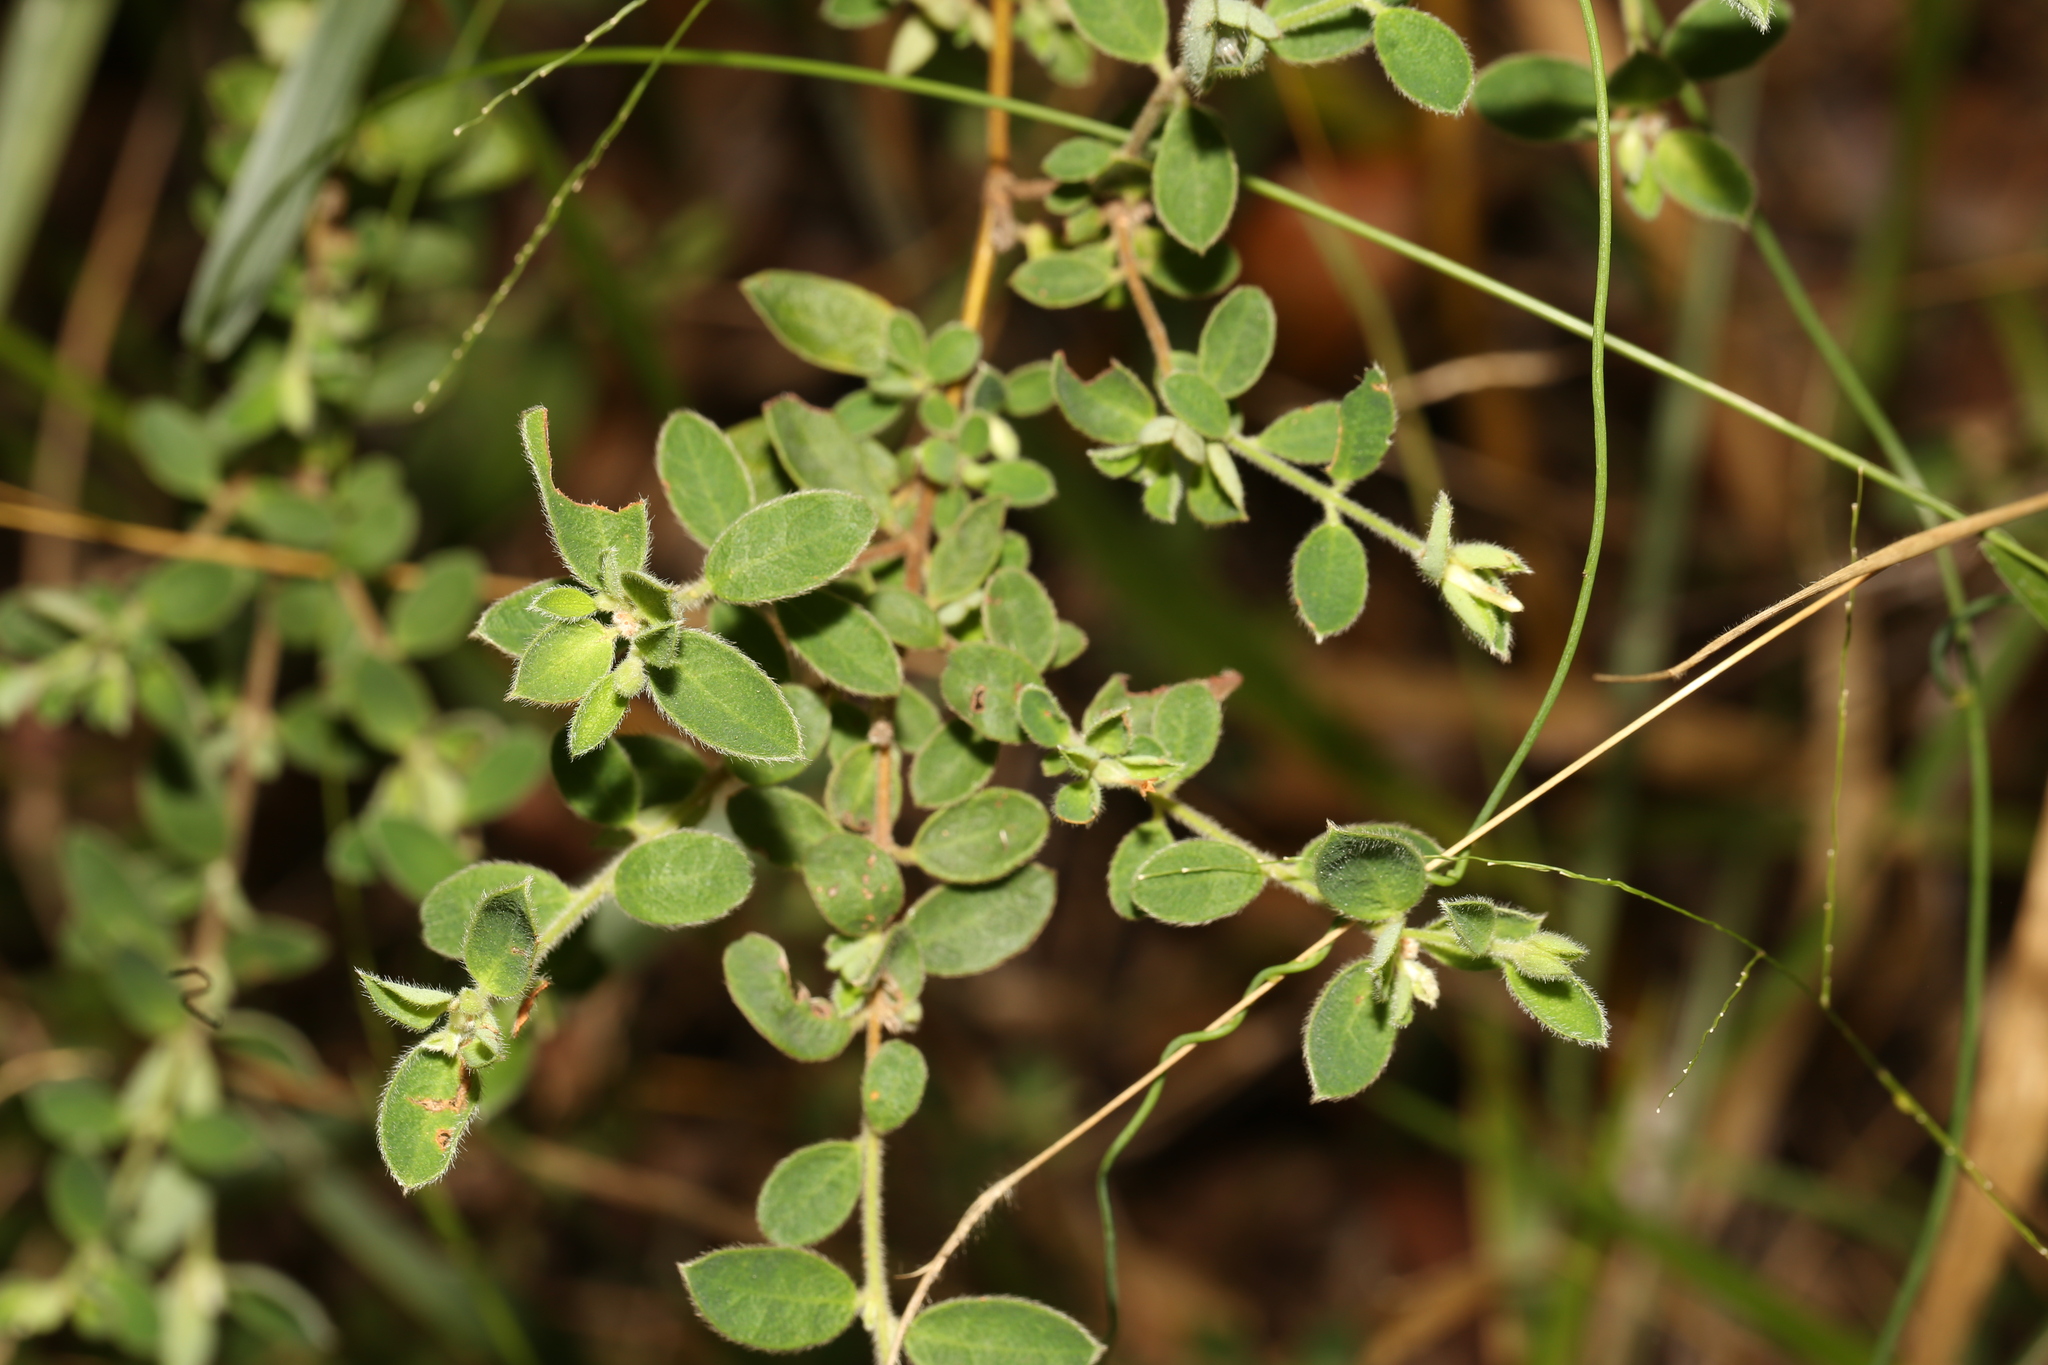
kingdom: Plantae
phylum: Tracheophyta
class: Magnoliopsida
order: Malvales
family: Thymelaeaceae
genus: Pimelea
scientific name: Pimelea altior
